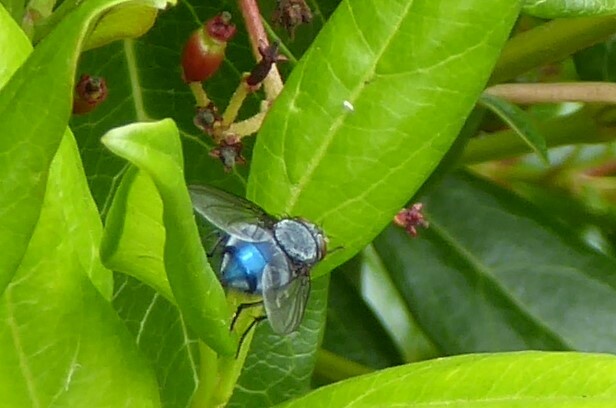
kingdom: Animalia
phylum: Arthropoda
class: Insecta
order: Diptera
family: Calliphoridae
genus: Calliphora
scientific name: Calliphora vicina
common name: Common blow flie
